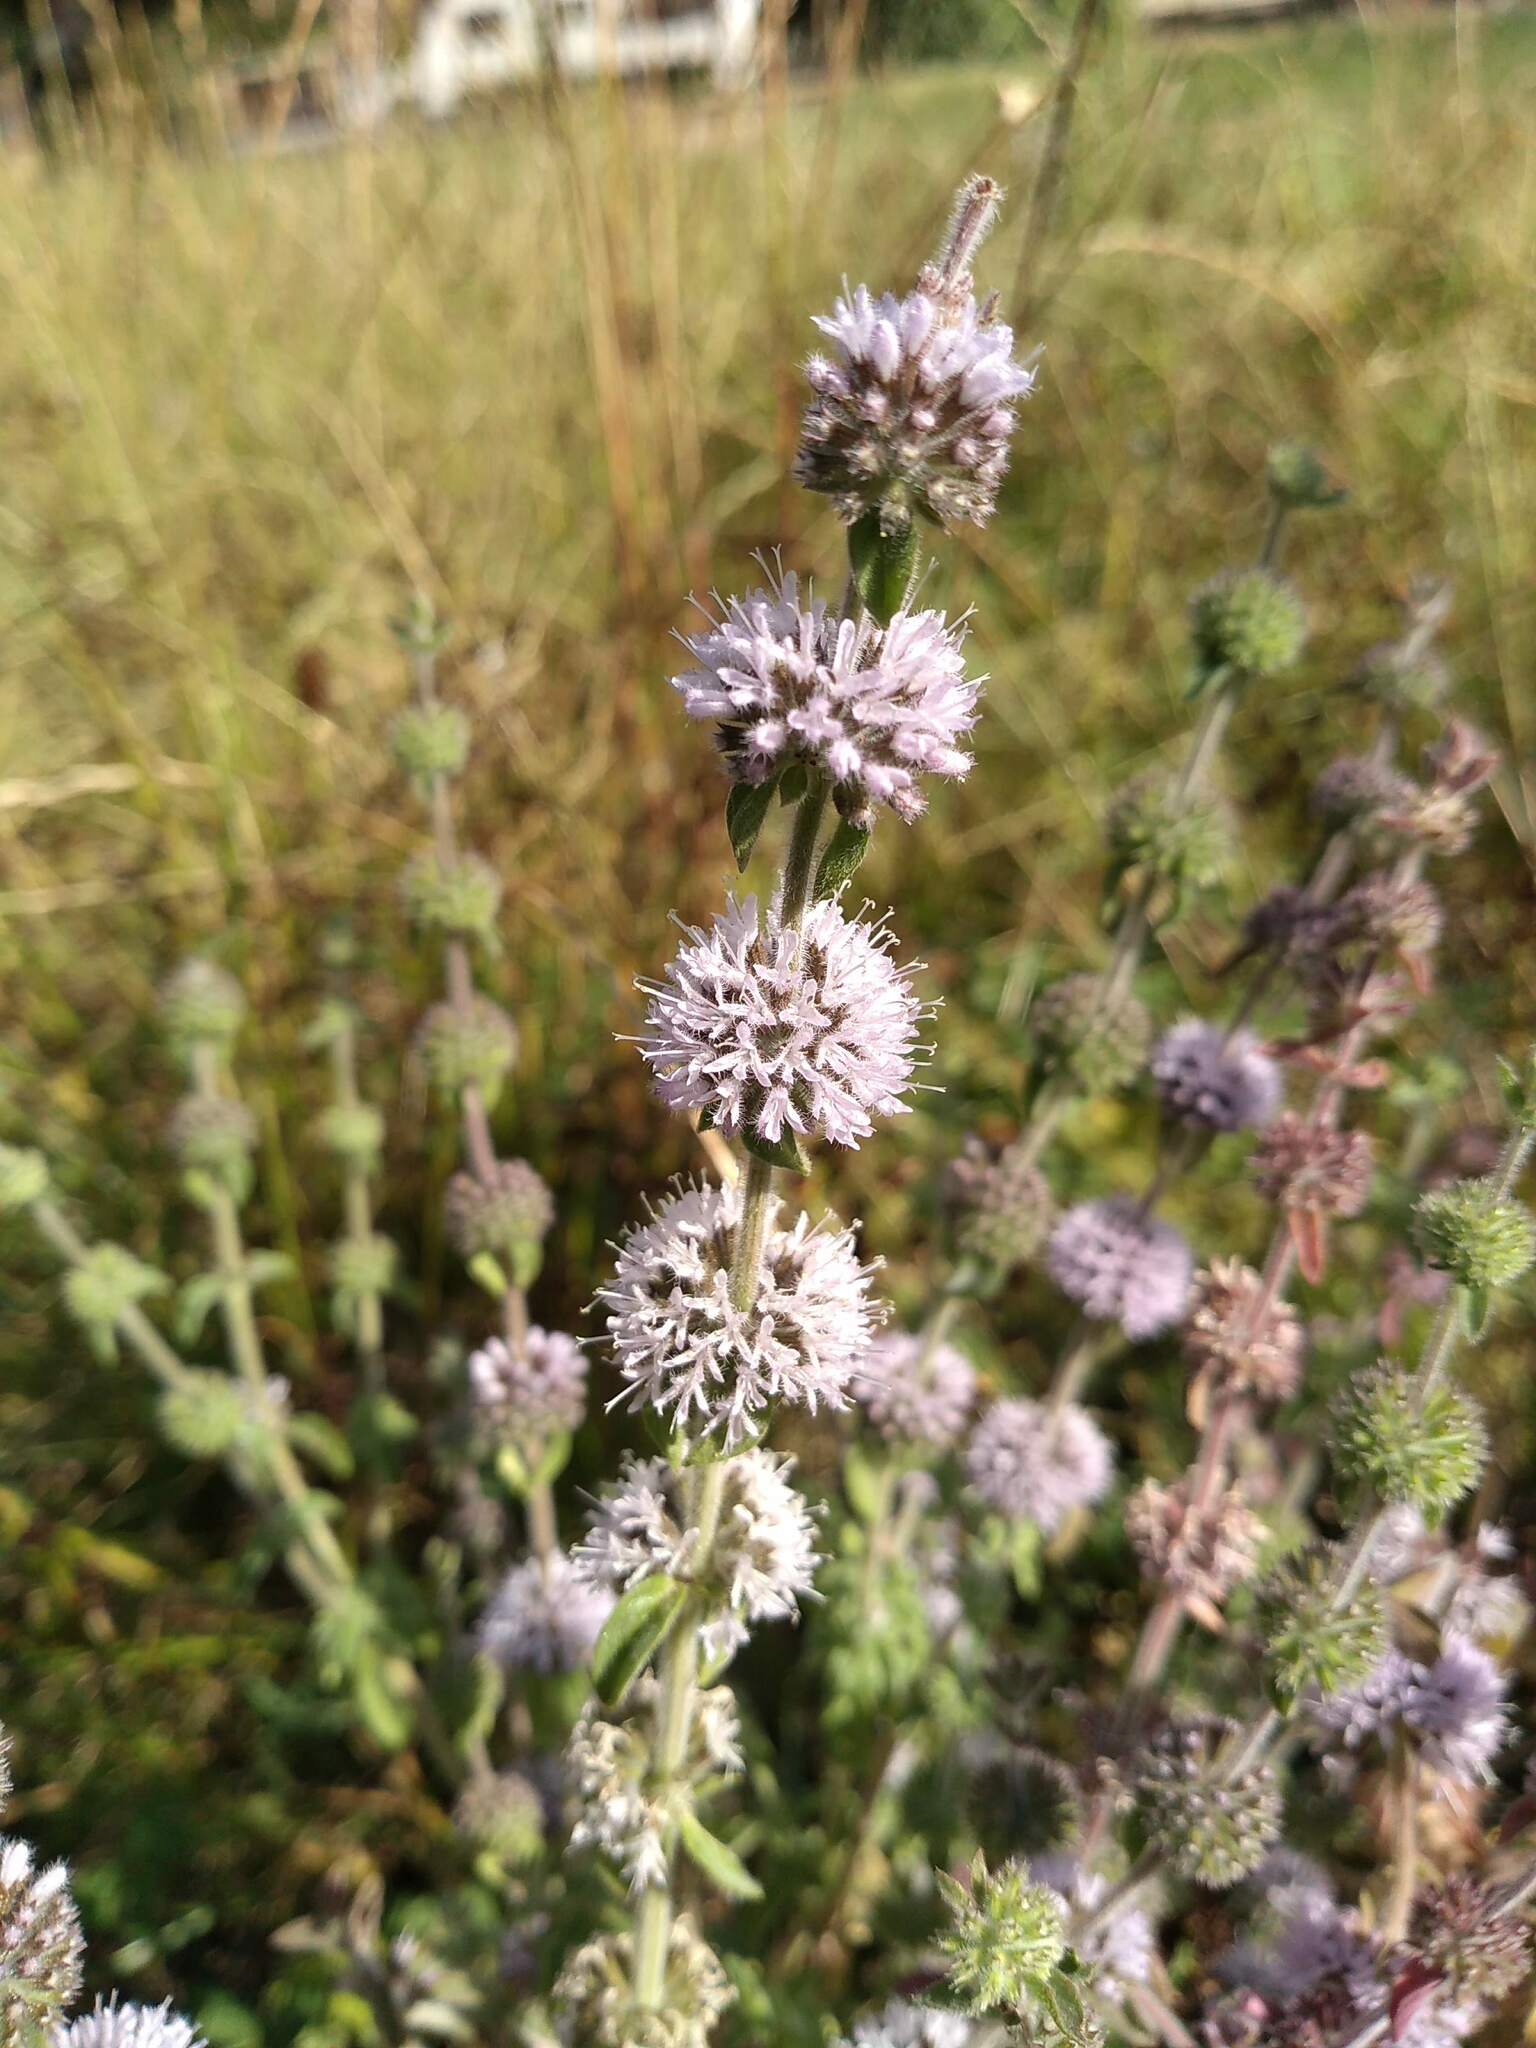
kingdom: Plantae
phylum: Tracheophyta
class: Magnoliopsida
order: Lamiales
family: Lamiaceae
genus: Mentha
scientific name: Mentha pulegium
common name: Pennyroyal
